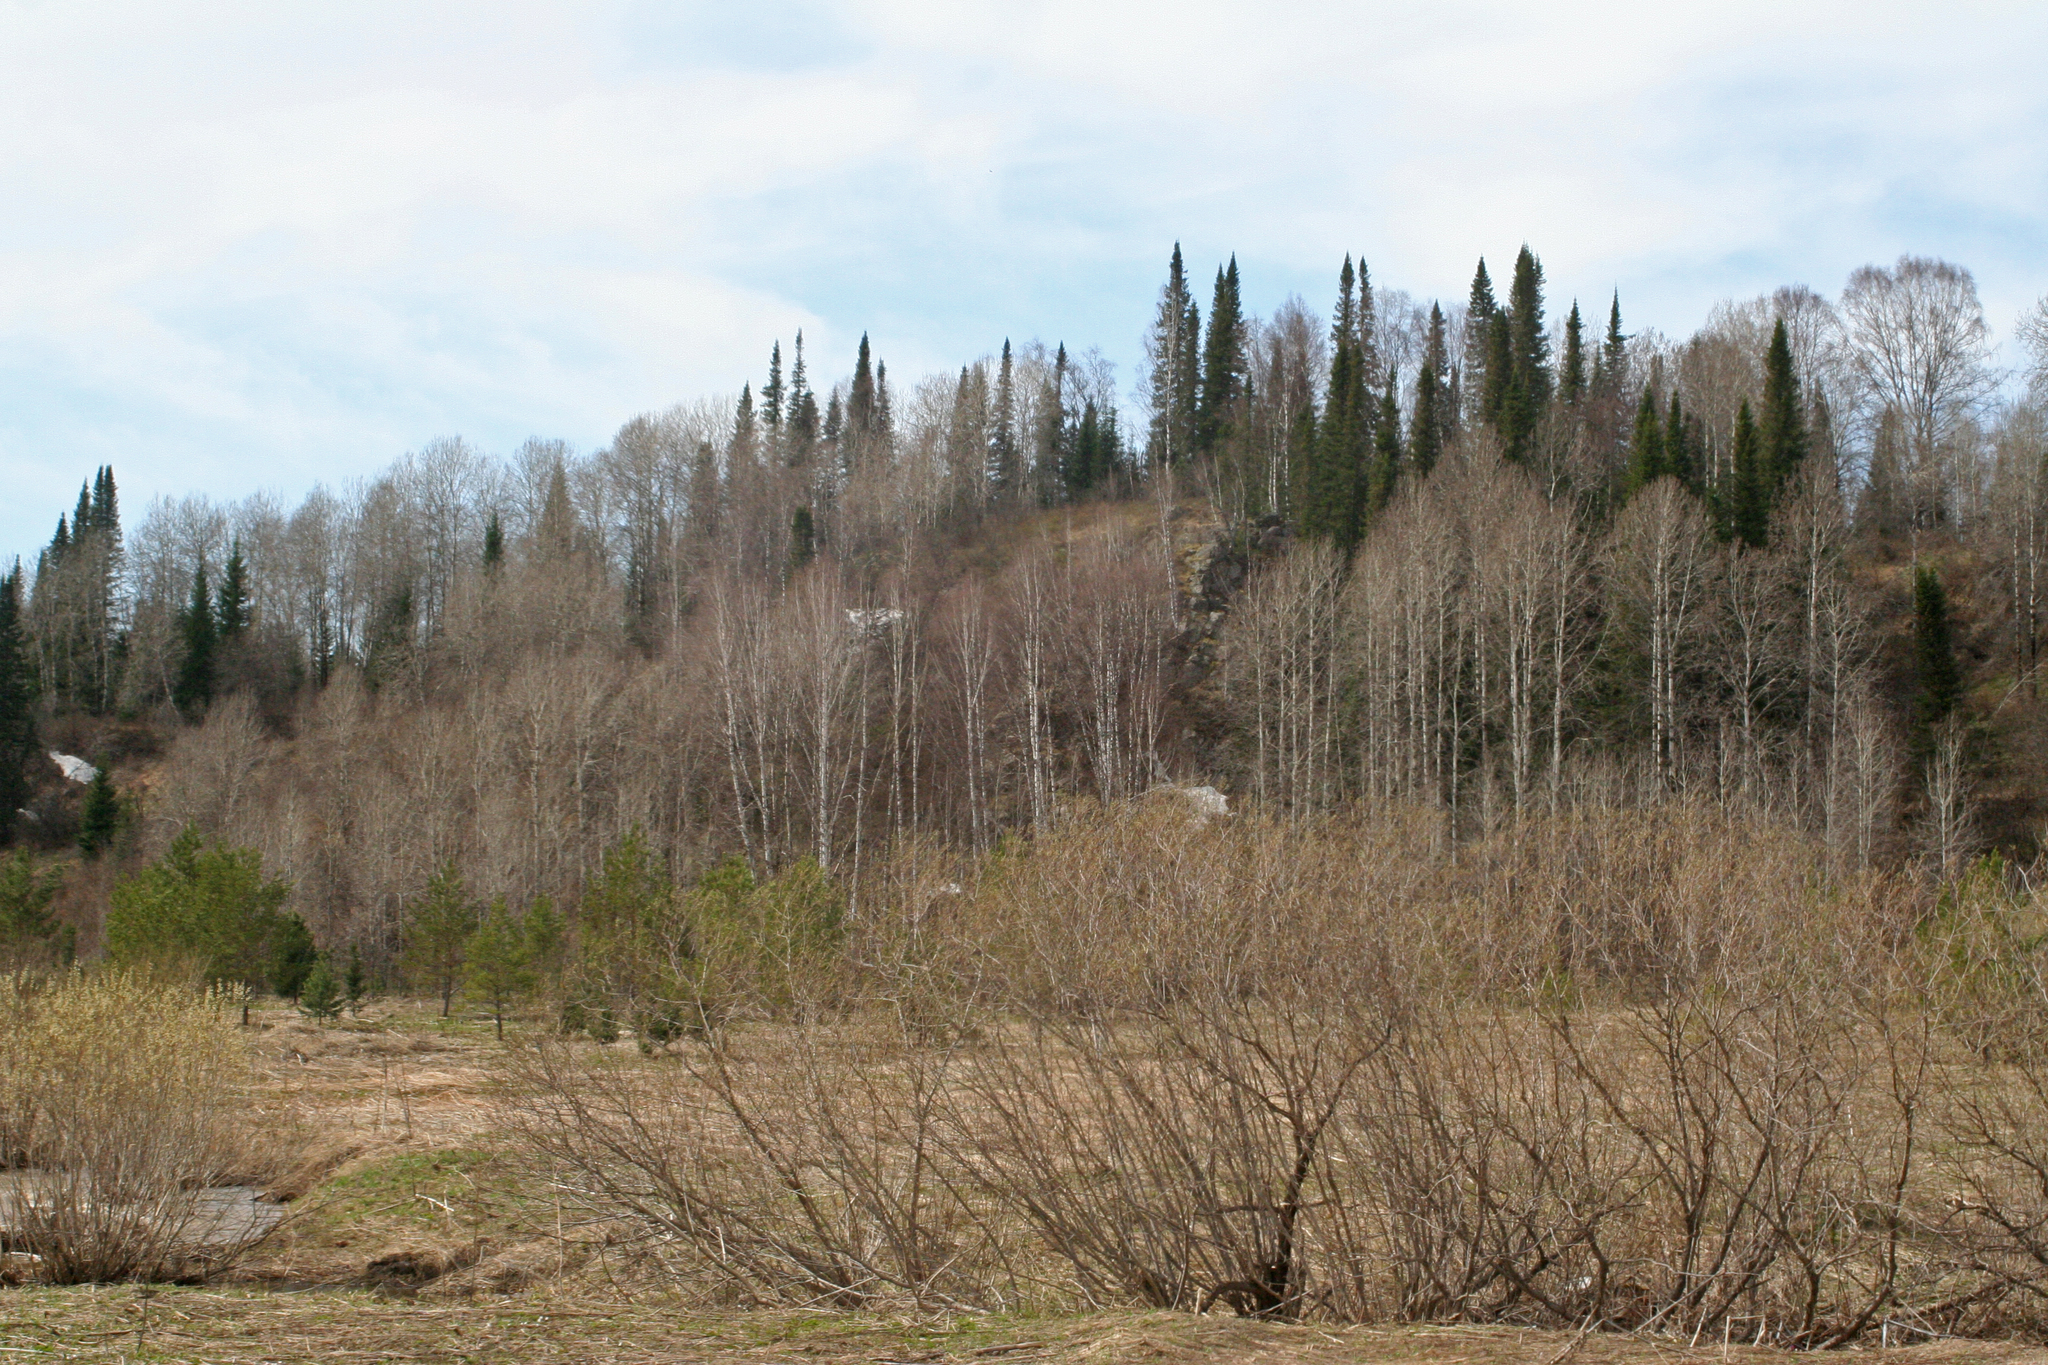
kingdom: Plantae
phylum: Tracheophyta
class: Pinopsida
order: Pinales
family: Pinaceae
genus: Abies
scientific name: Abies sibirica
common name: Siberian fir
